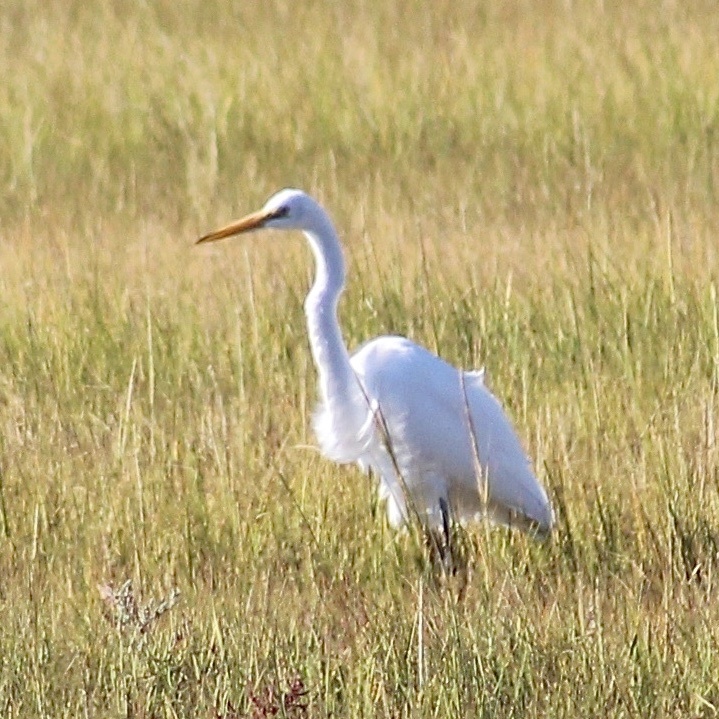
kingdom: Animalia
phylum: Chordata
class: Aves
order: Pelecaniformes
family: Ardeidae
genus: Ardea
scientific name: Ardea alba
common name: Great egret
